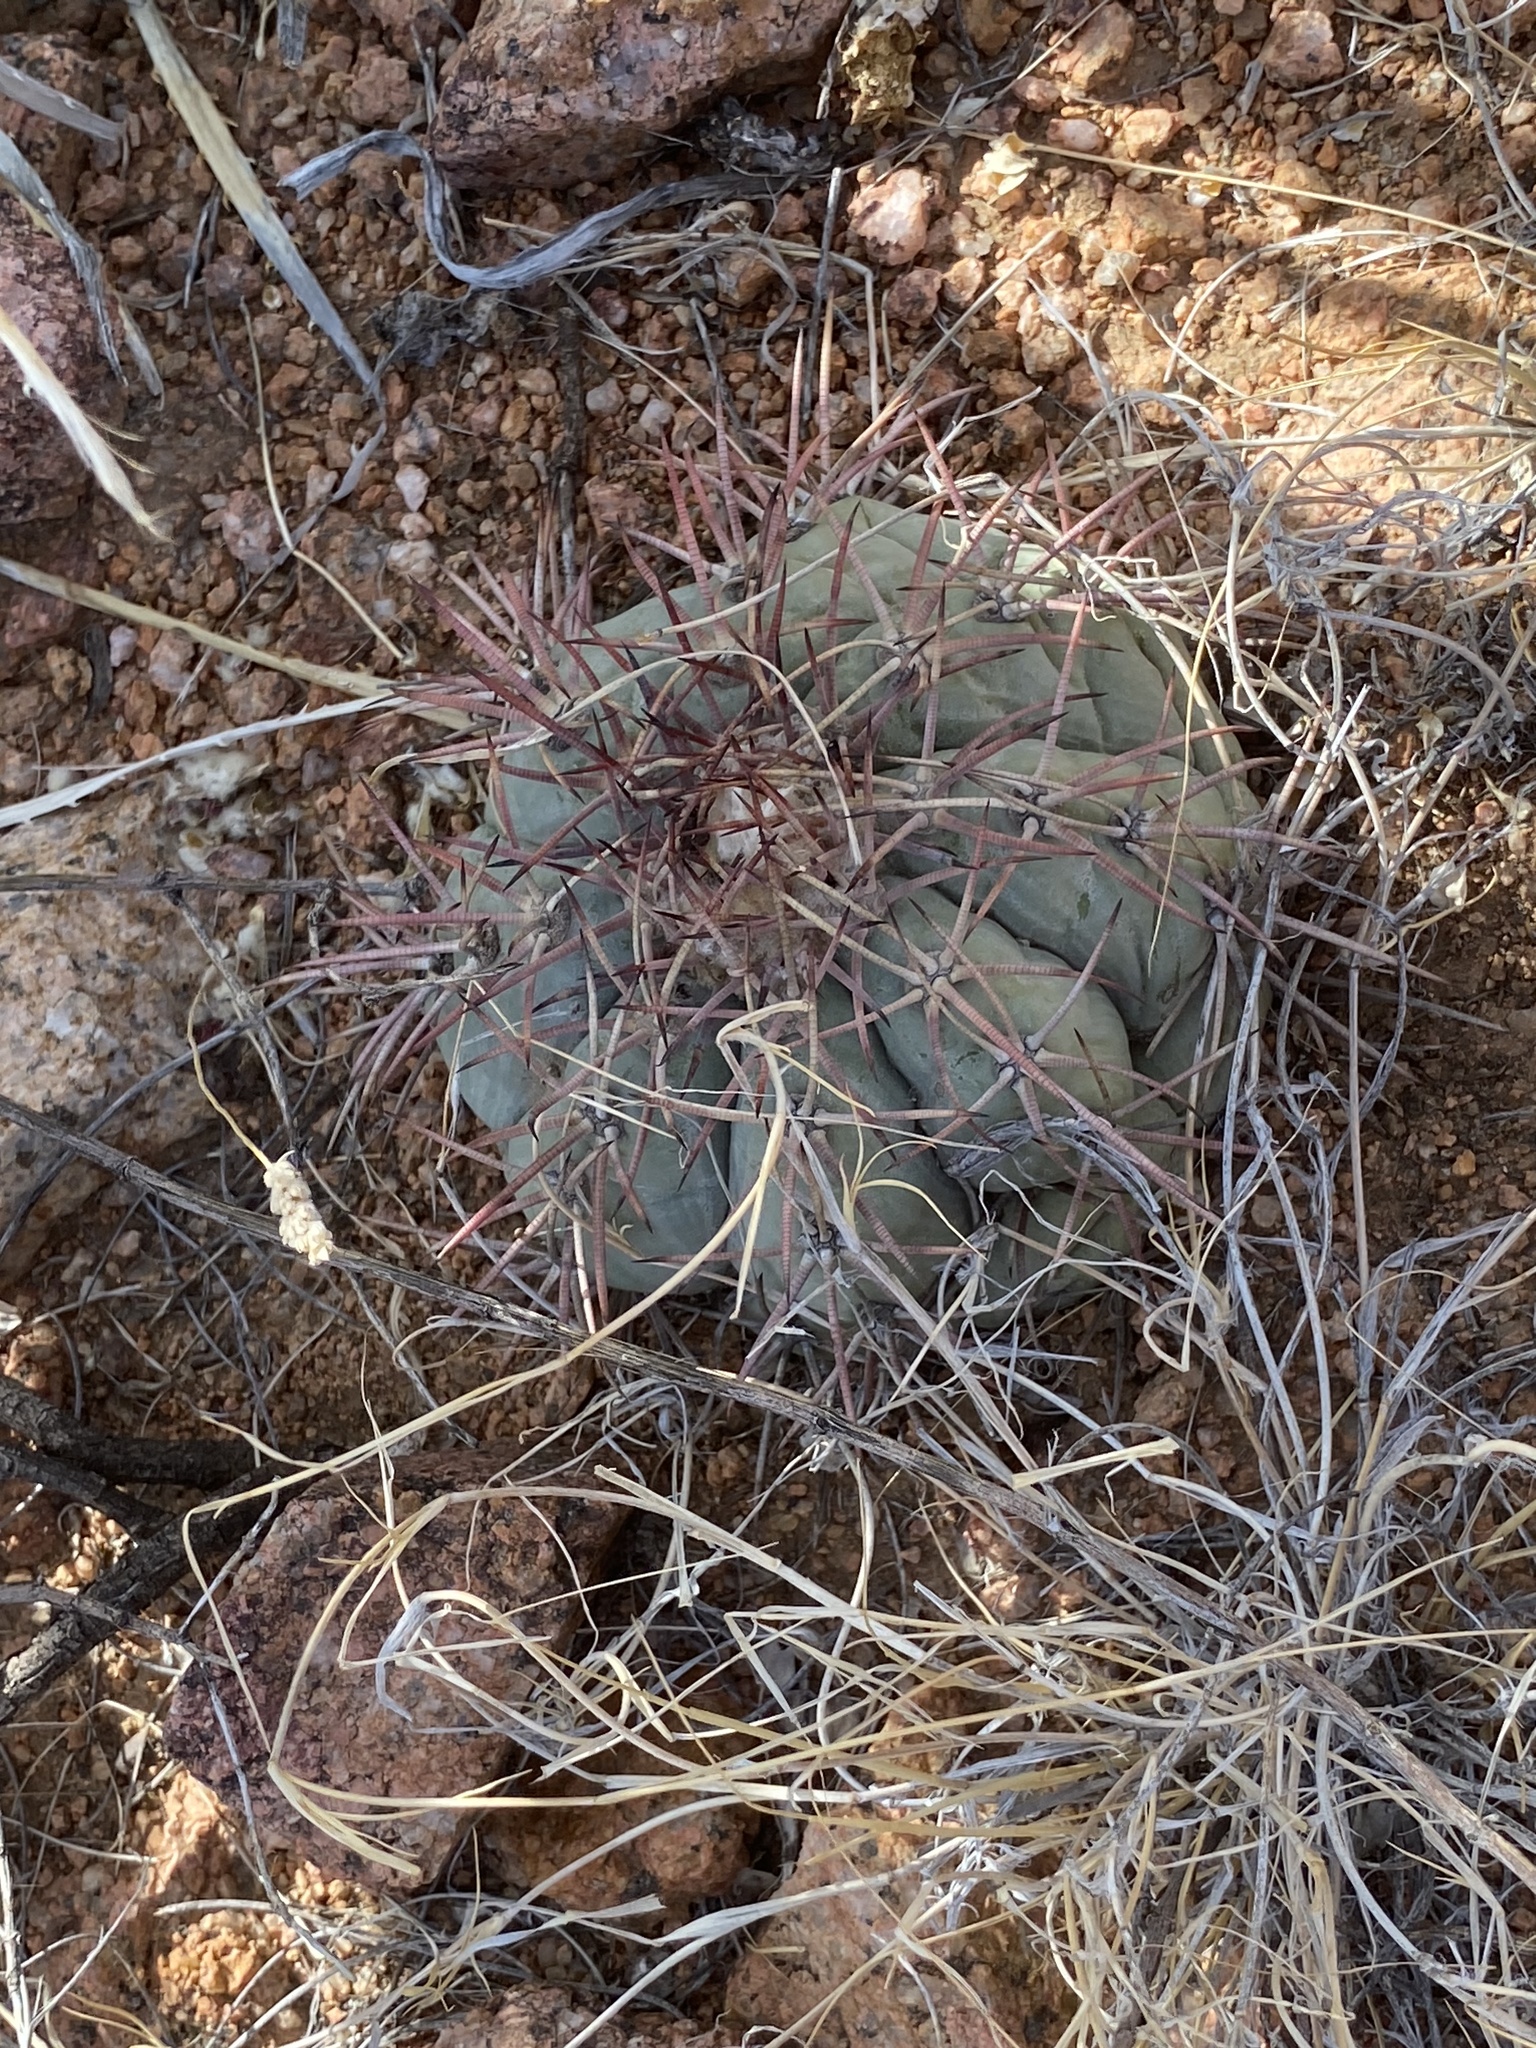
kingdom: Plantae
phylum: Tracheophyta
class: Magnoliopsida
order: Caryophyllales
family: Cactaceae
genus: Echinocactus
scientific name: Echinocactus horizonthalonius
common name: Devilshead
